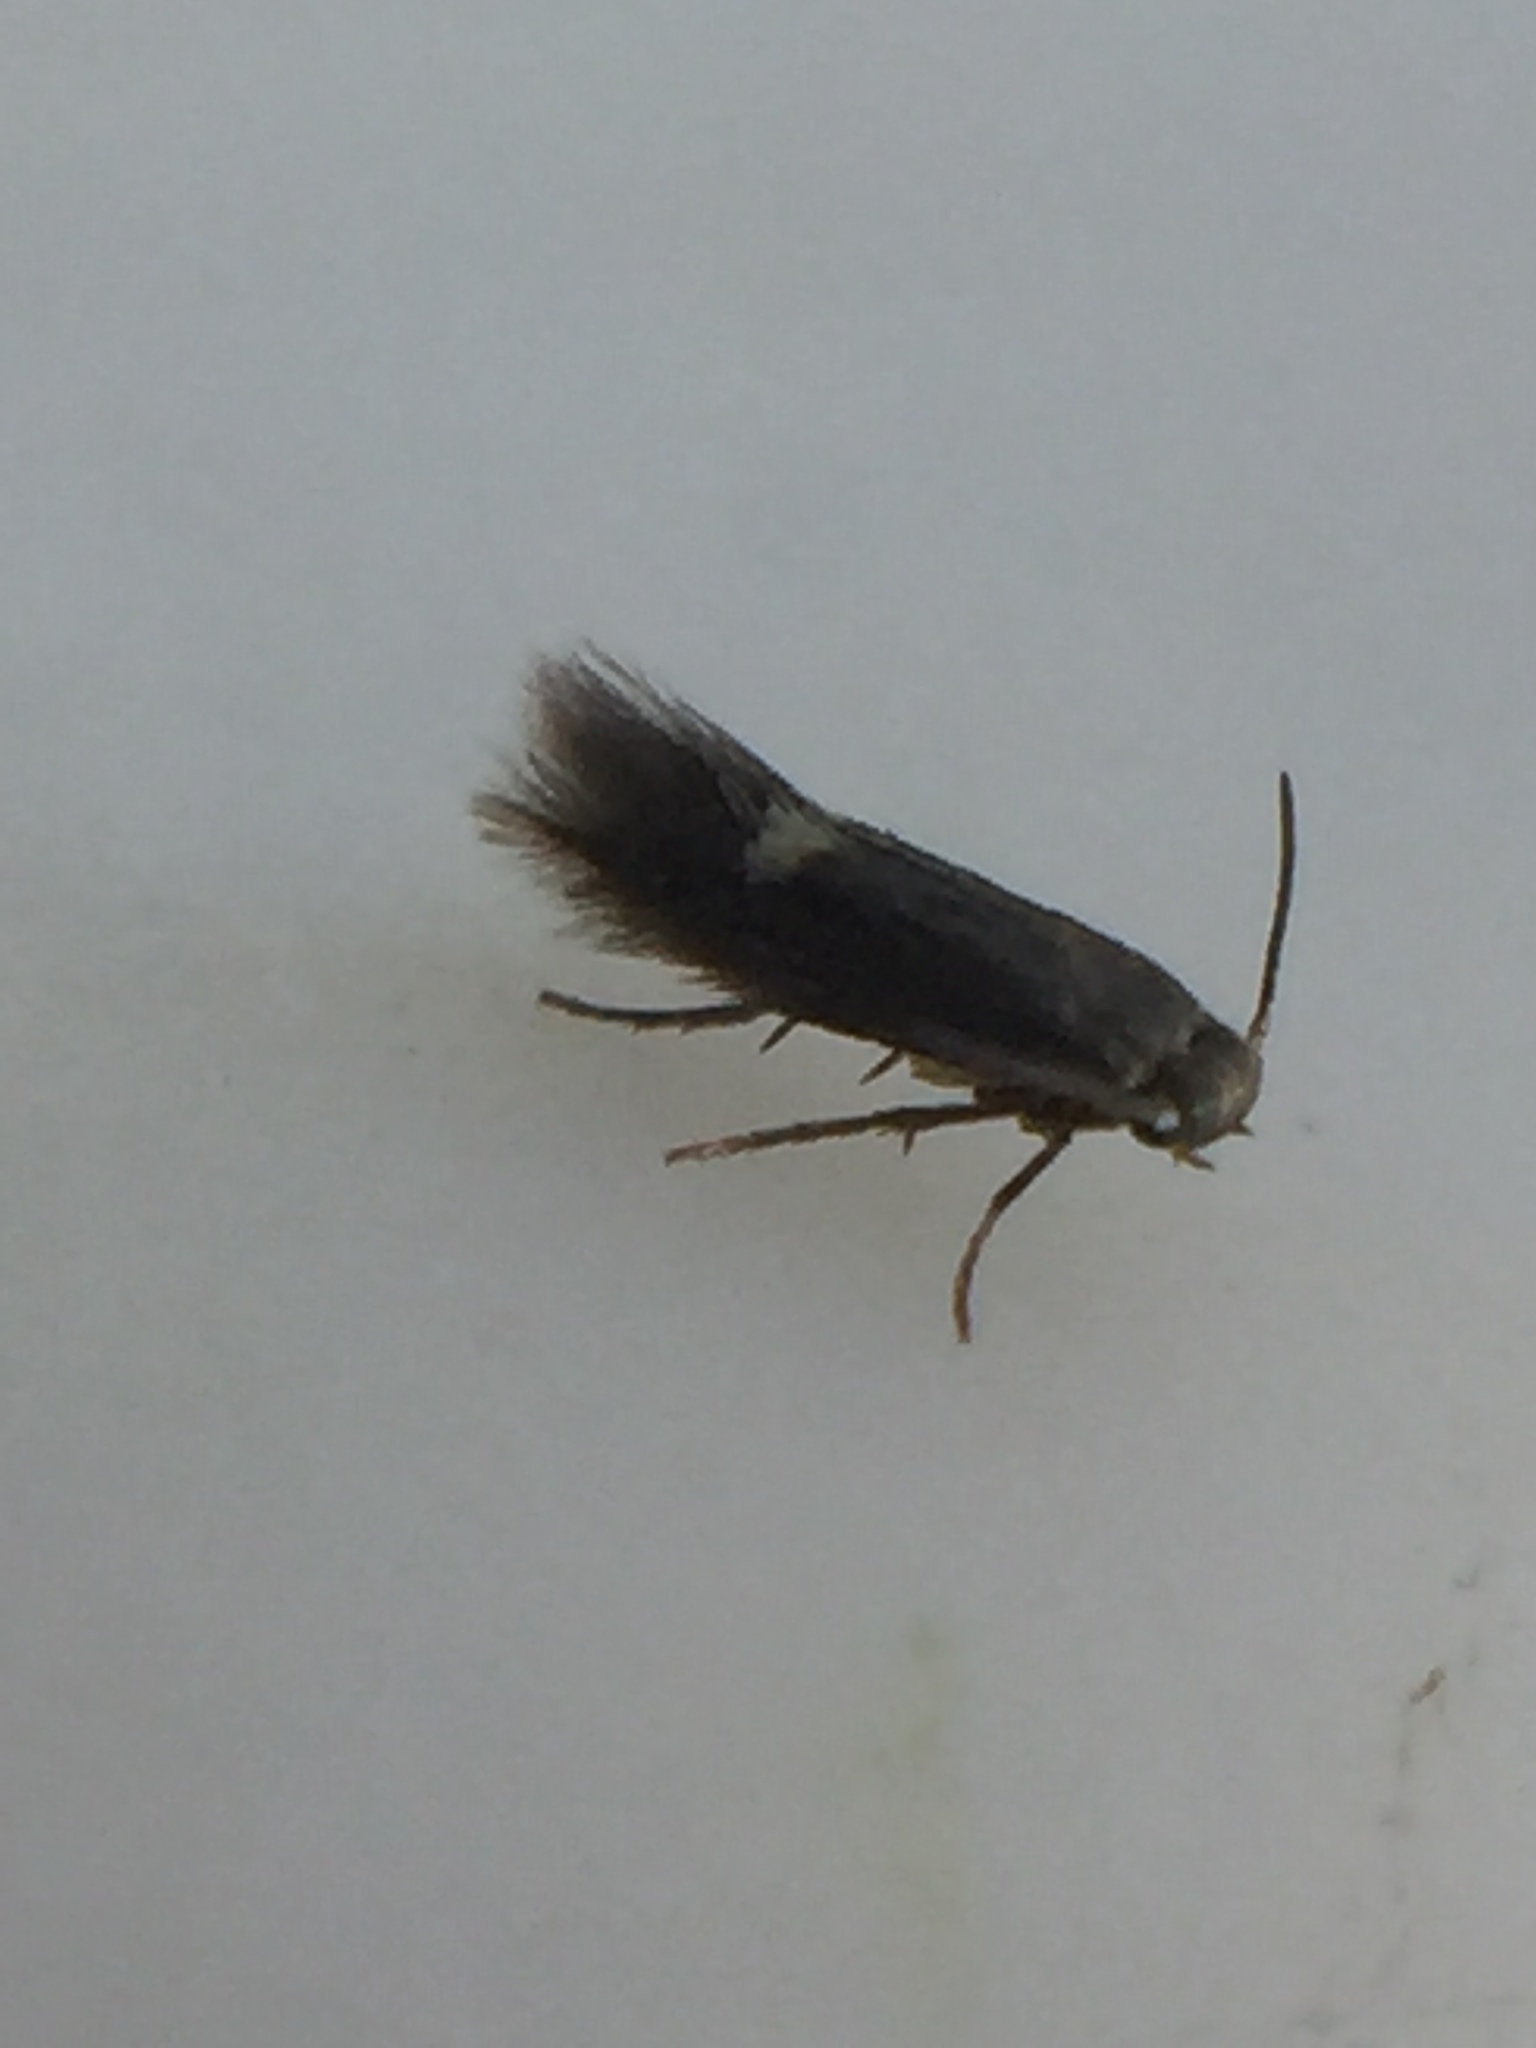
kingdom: Animalia
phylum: Arthropoda
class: Insecta
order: Lepidoptera
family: Heliozelidae
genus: Heliozela
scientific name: Heliozela catoptrias
